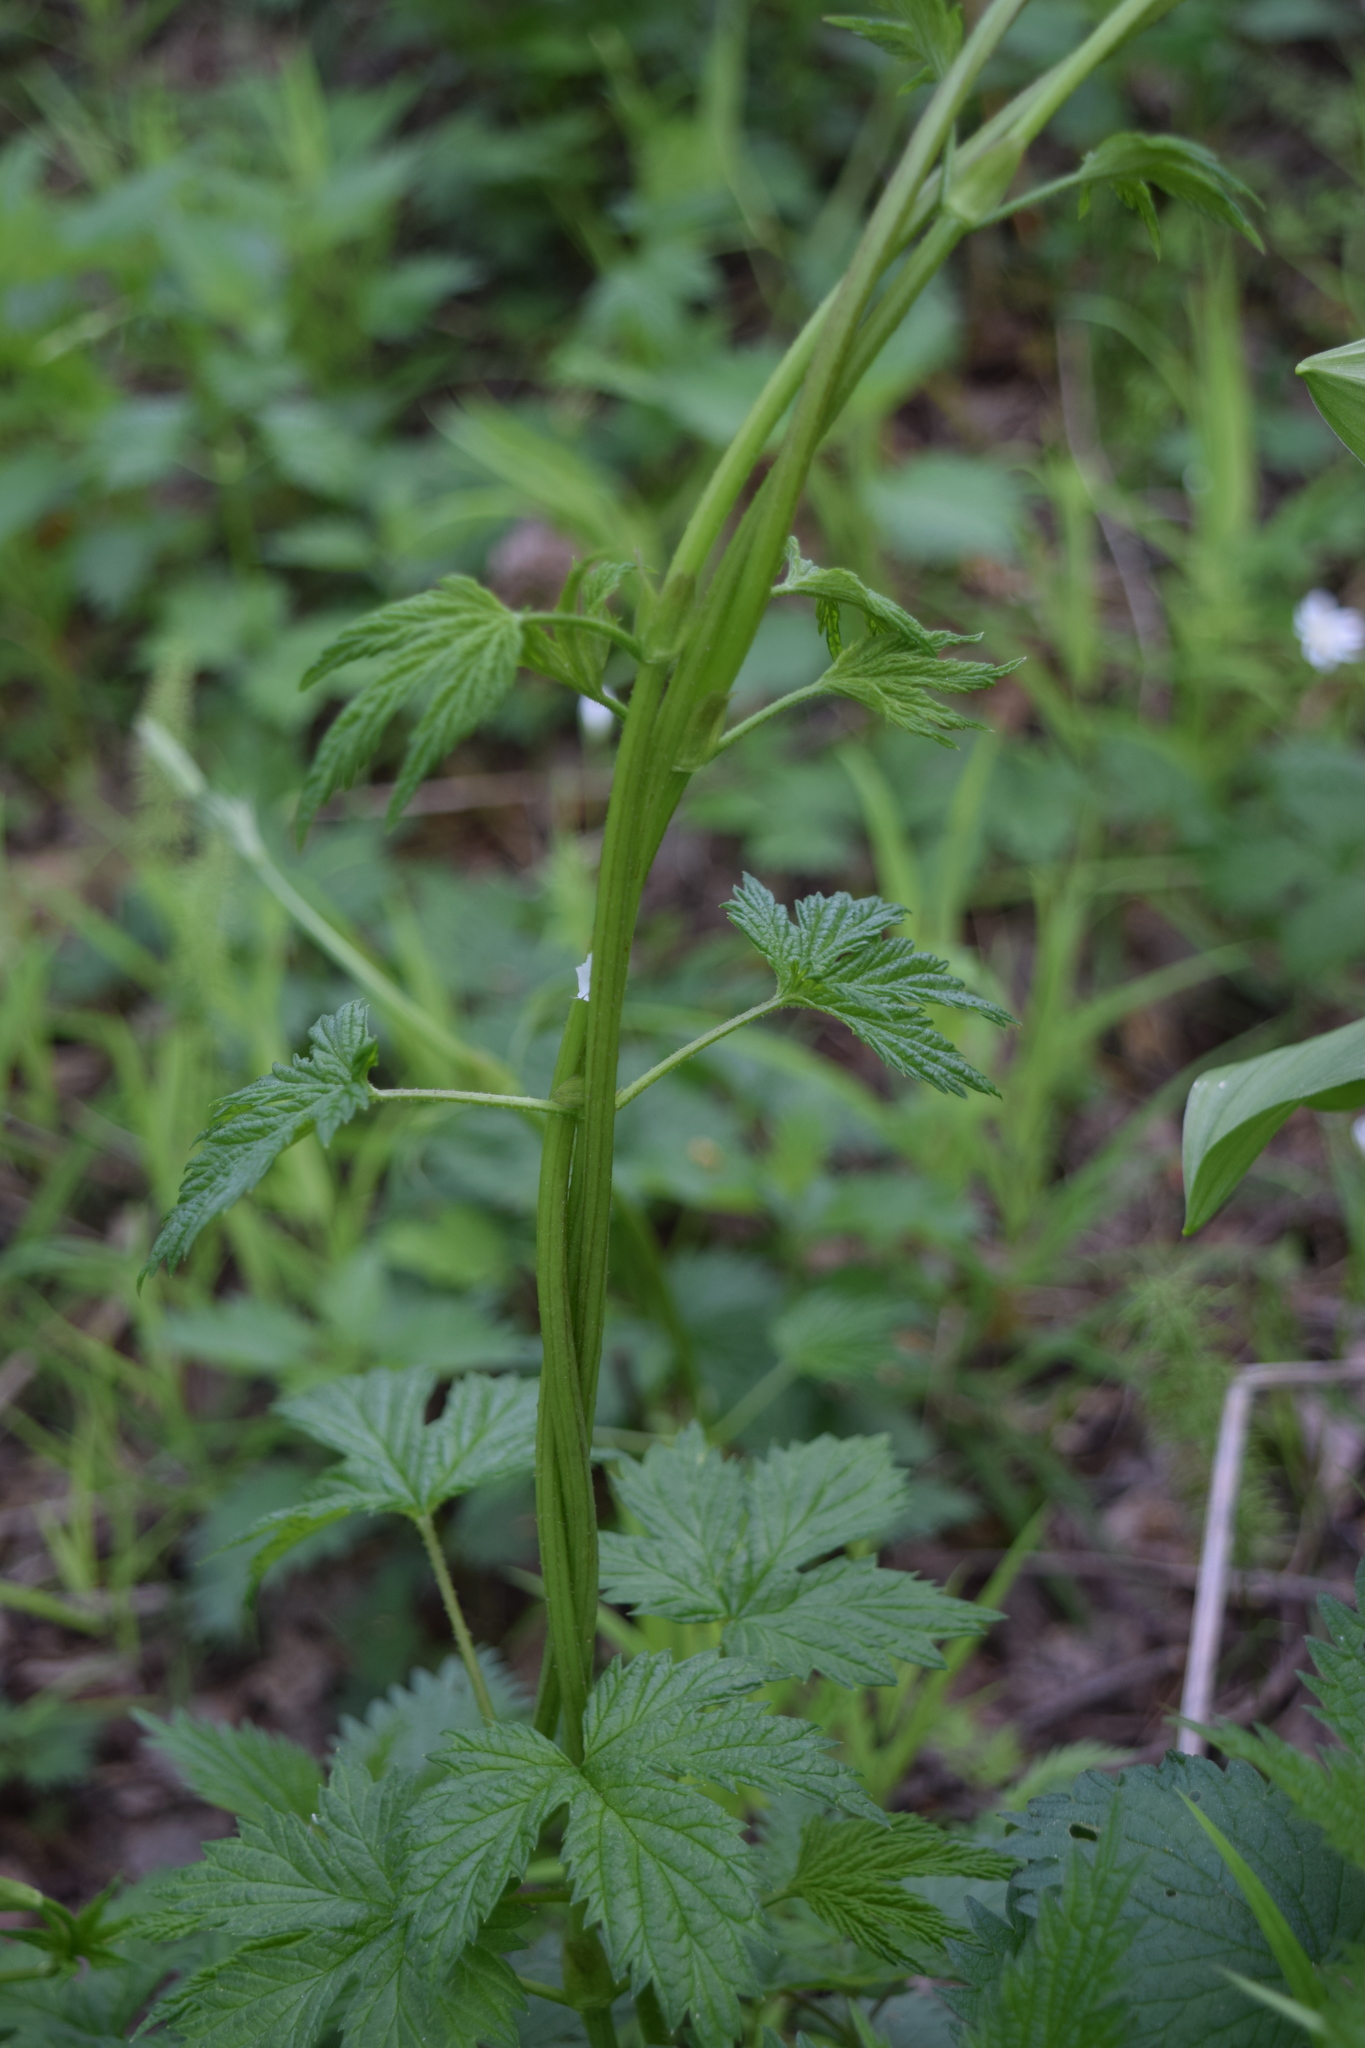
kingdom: Plantae
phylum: Tracheophyta
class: Magnoliopsida
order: Rosales
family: Cannabaceae
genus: Humulus
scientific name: Humulus lupulus
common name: Hop
